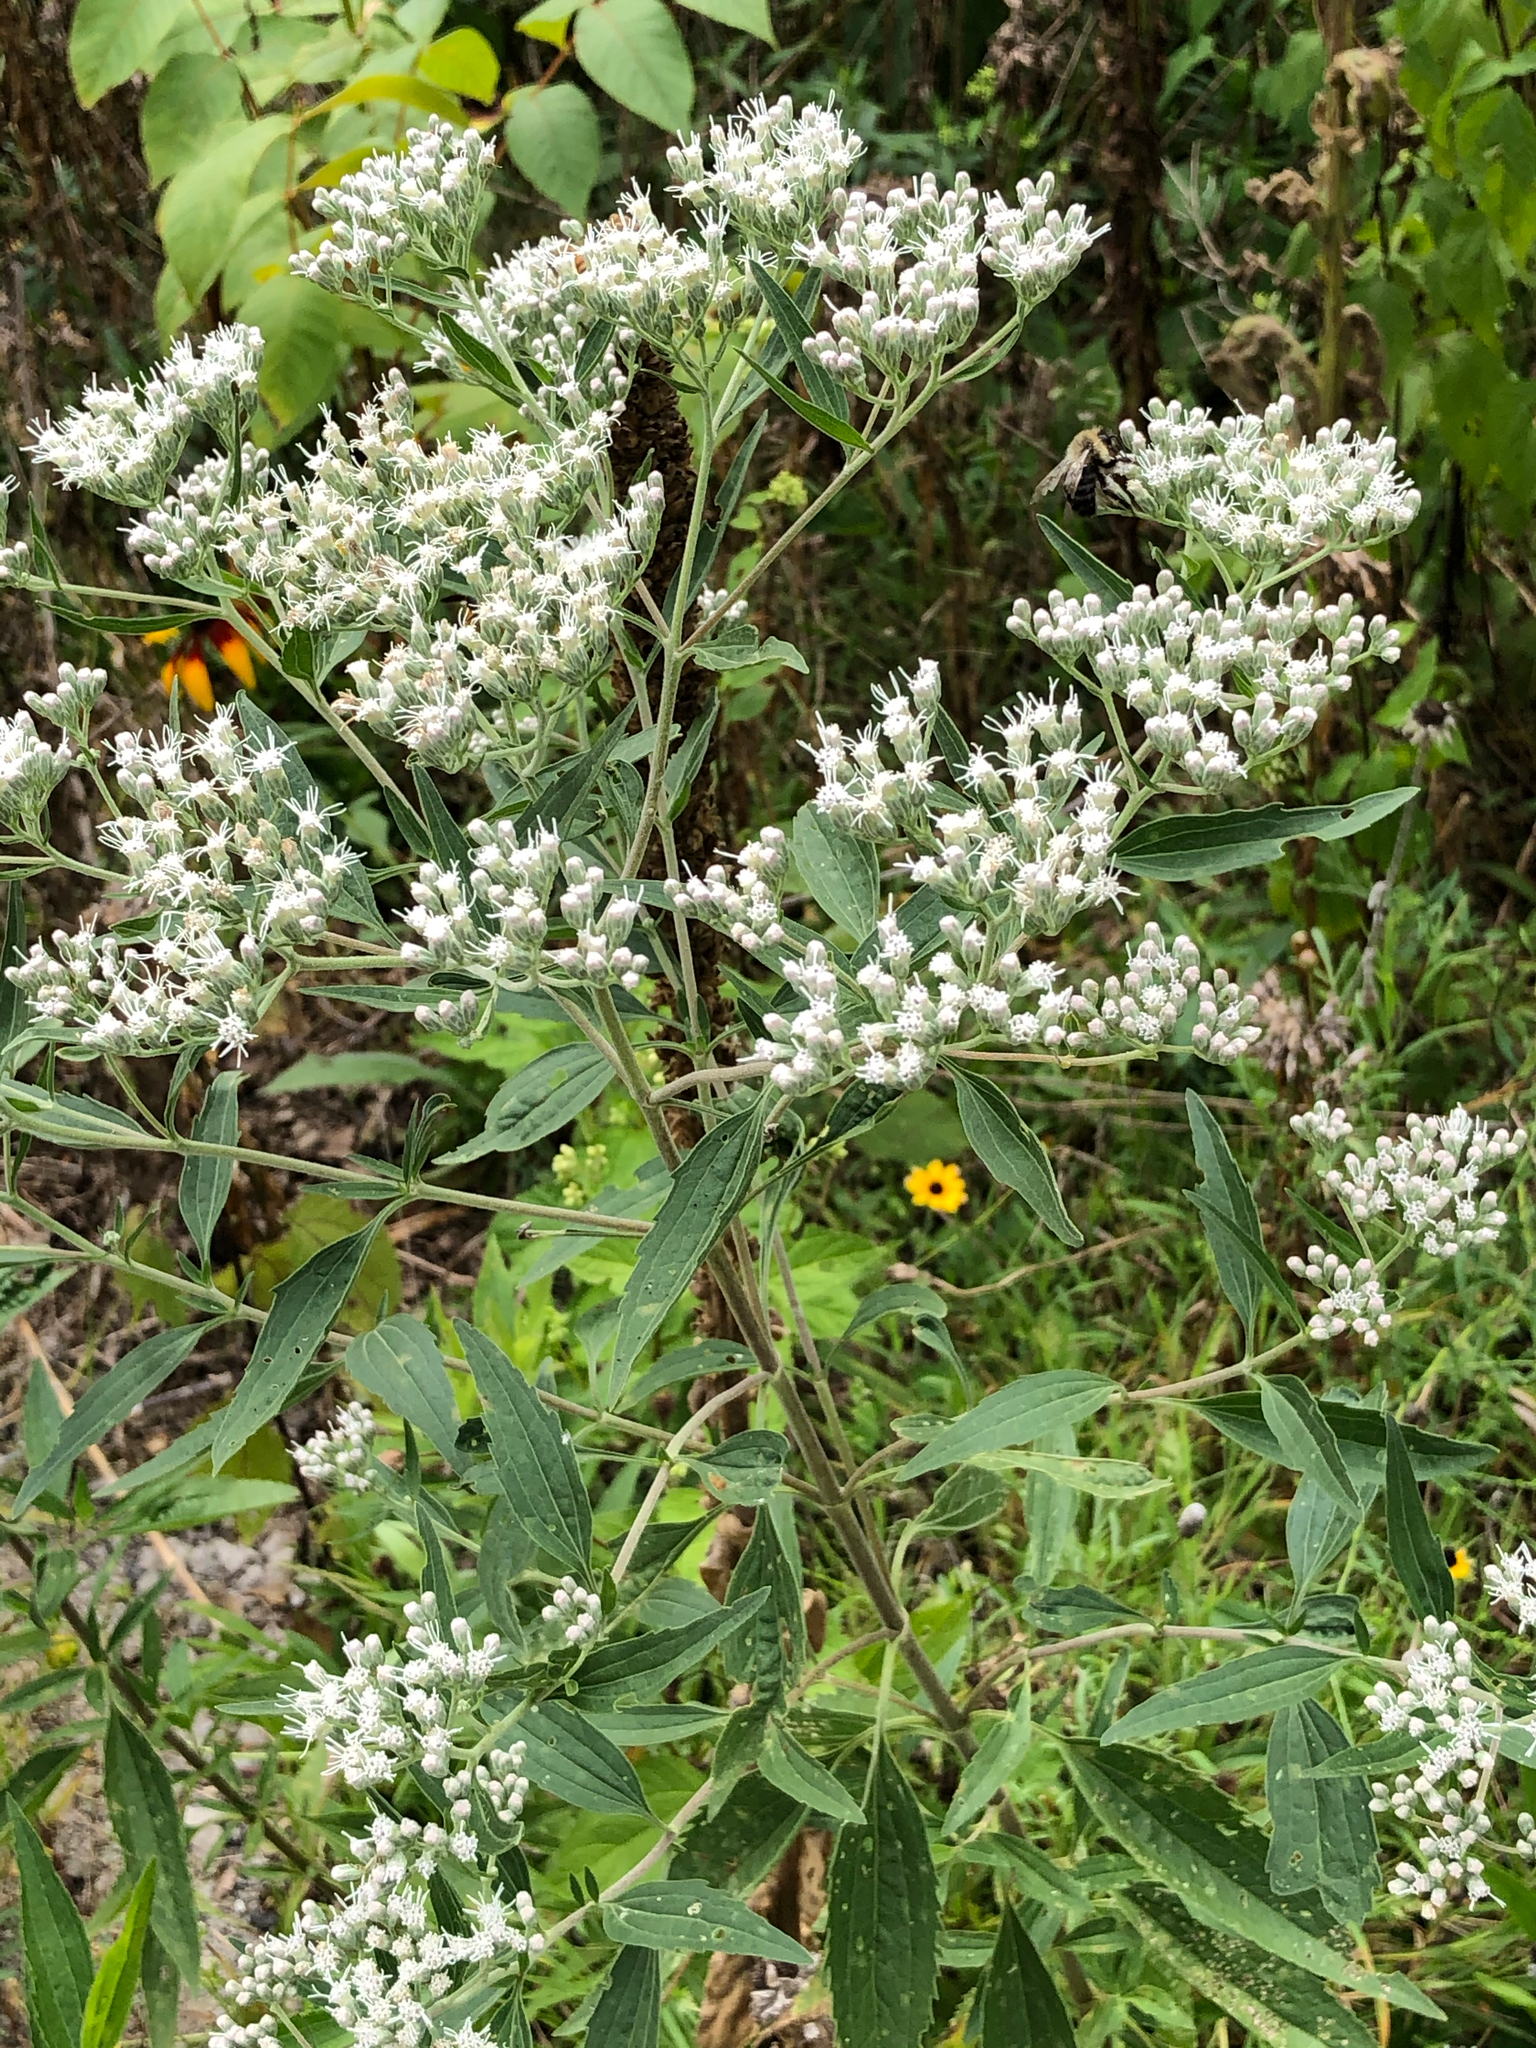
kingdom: Plantae
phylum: Tracheophyta
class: Magnoliopsida
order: Asterales
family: Asteraceae
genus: Eupatorium
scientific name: Eupatorium serotinum
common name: Late boneset
